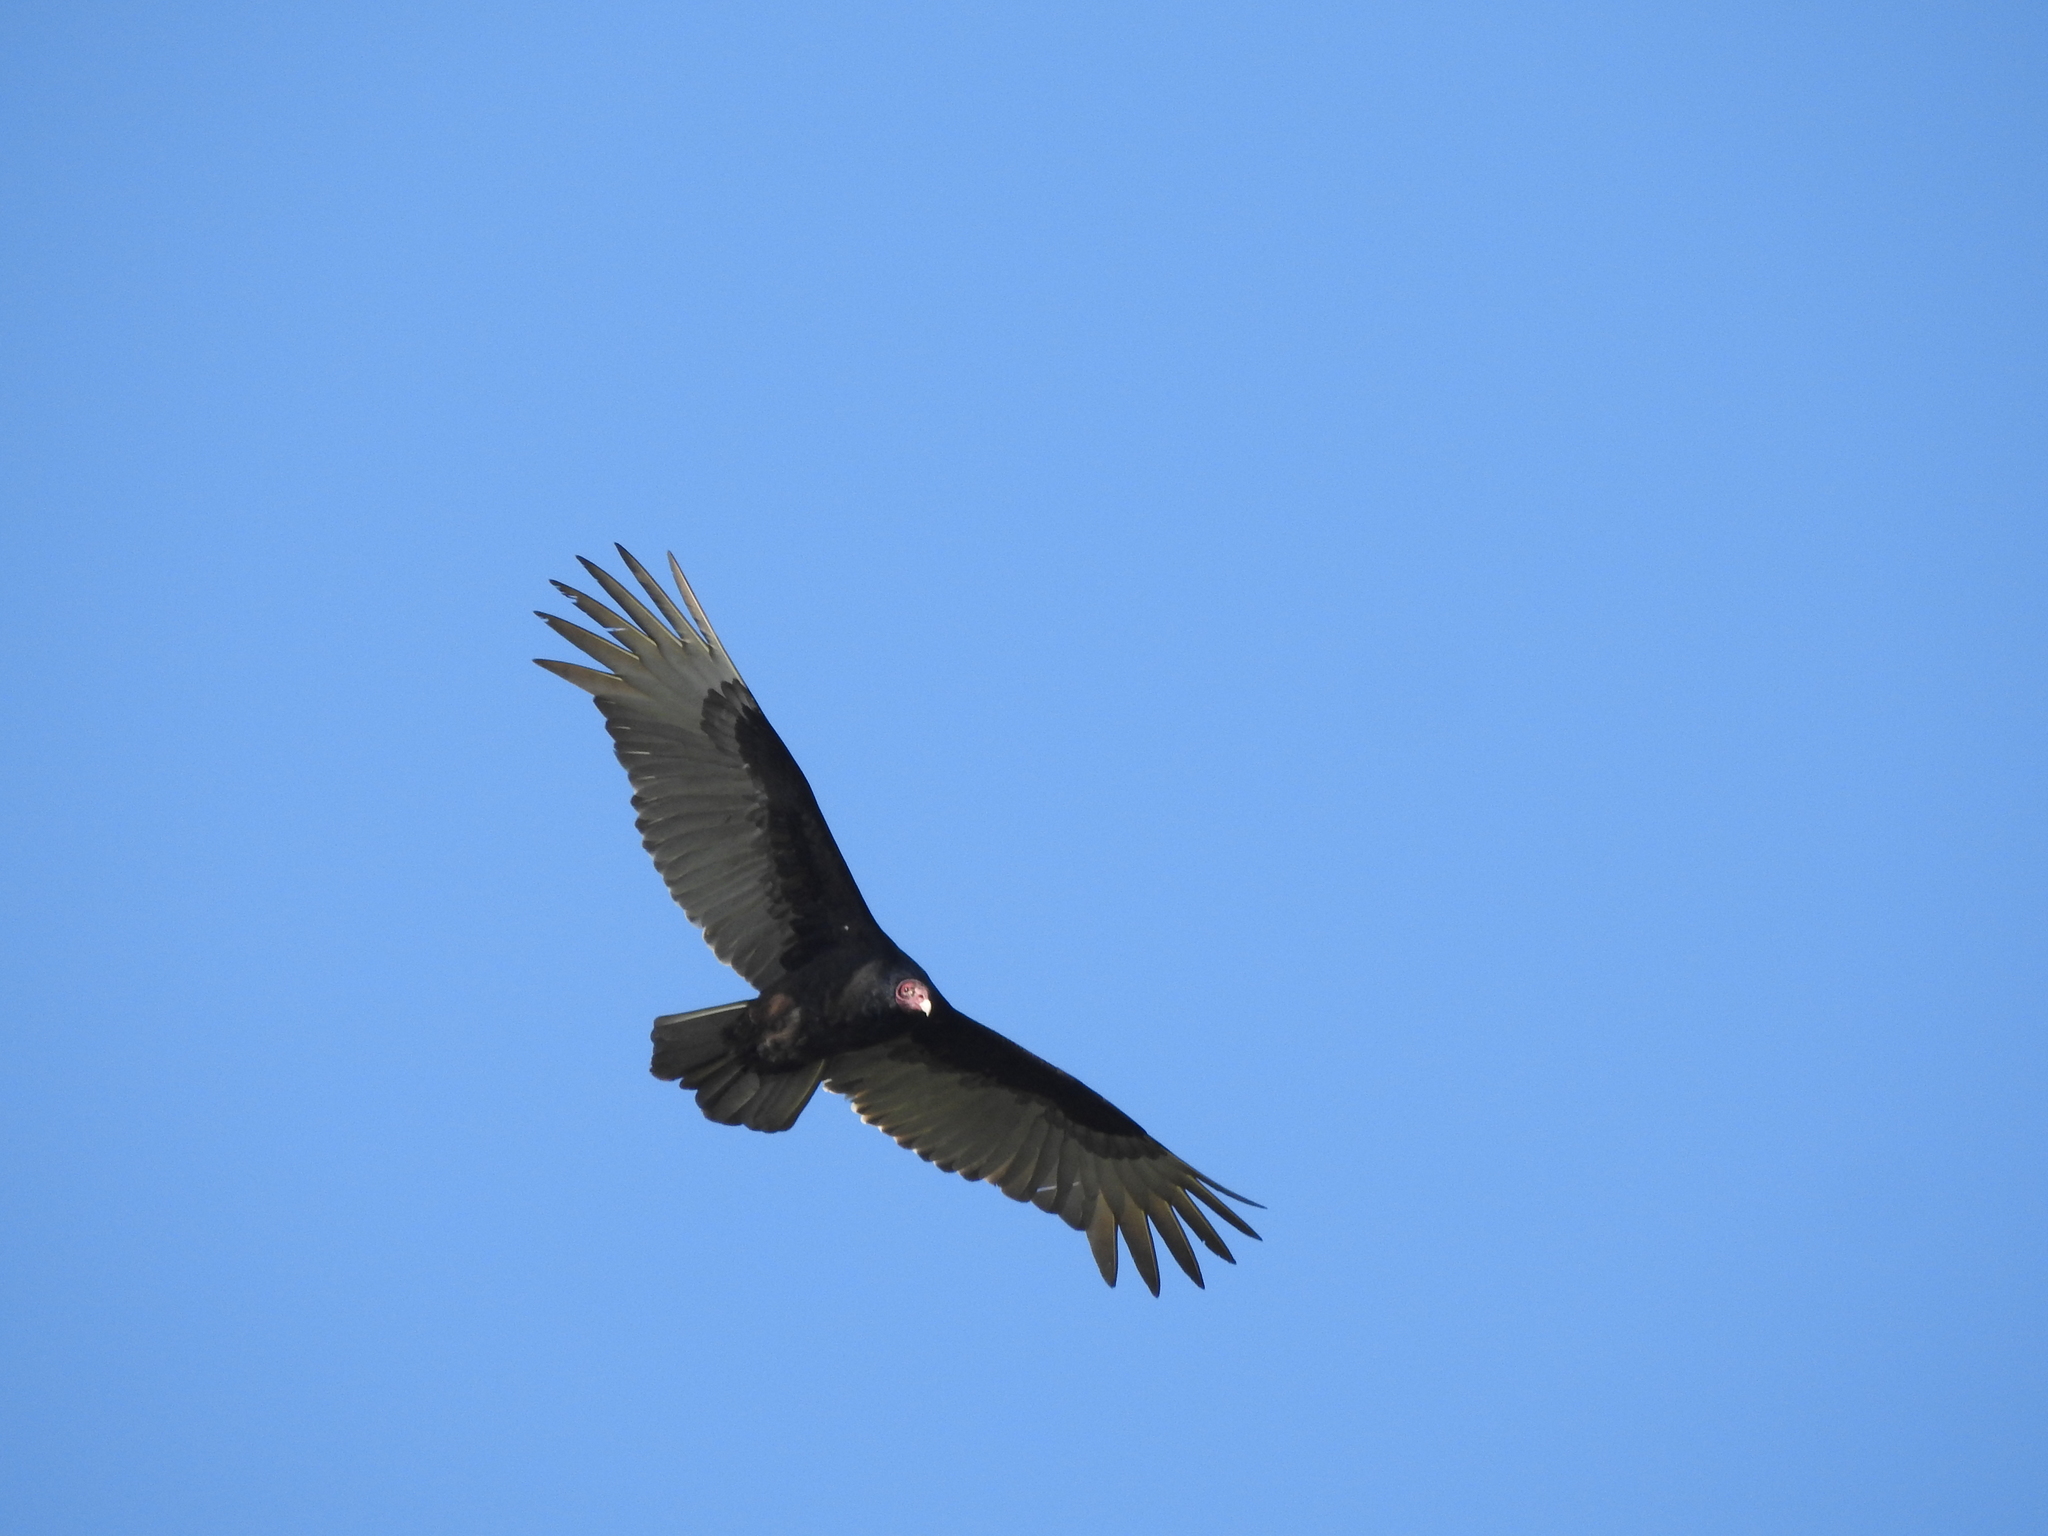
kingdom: Animalia
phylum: Chordata
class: Aves
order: Accipitriformes
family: Cathartidae
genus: Cathartes
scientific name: Cathartes aura
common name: Turkey vulture
